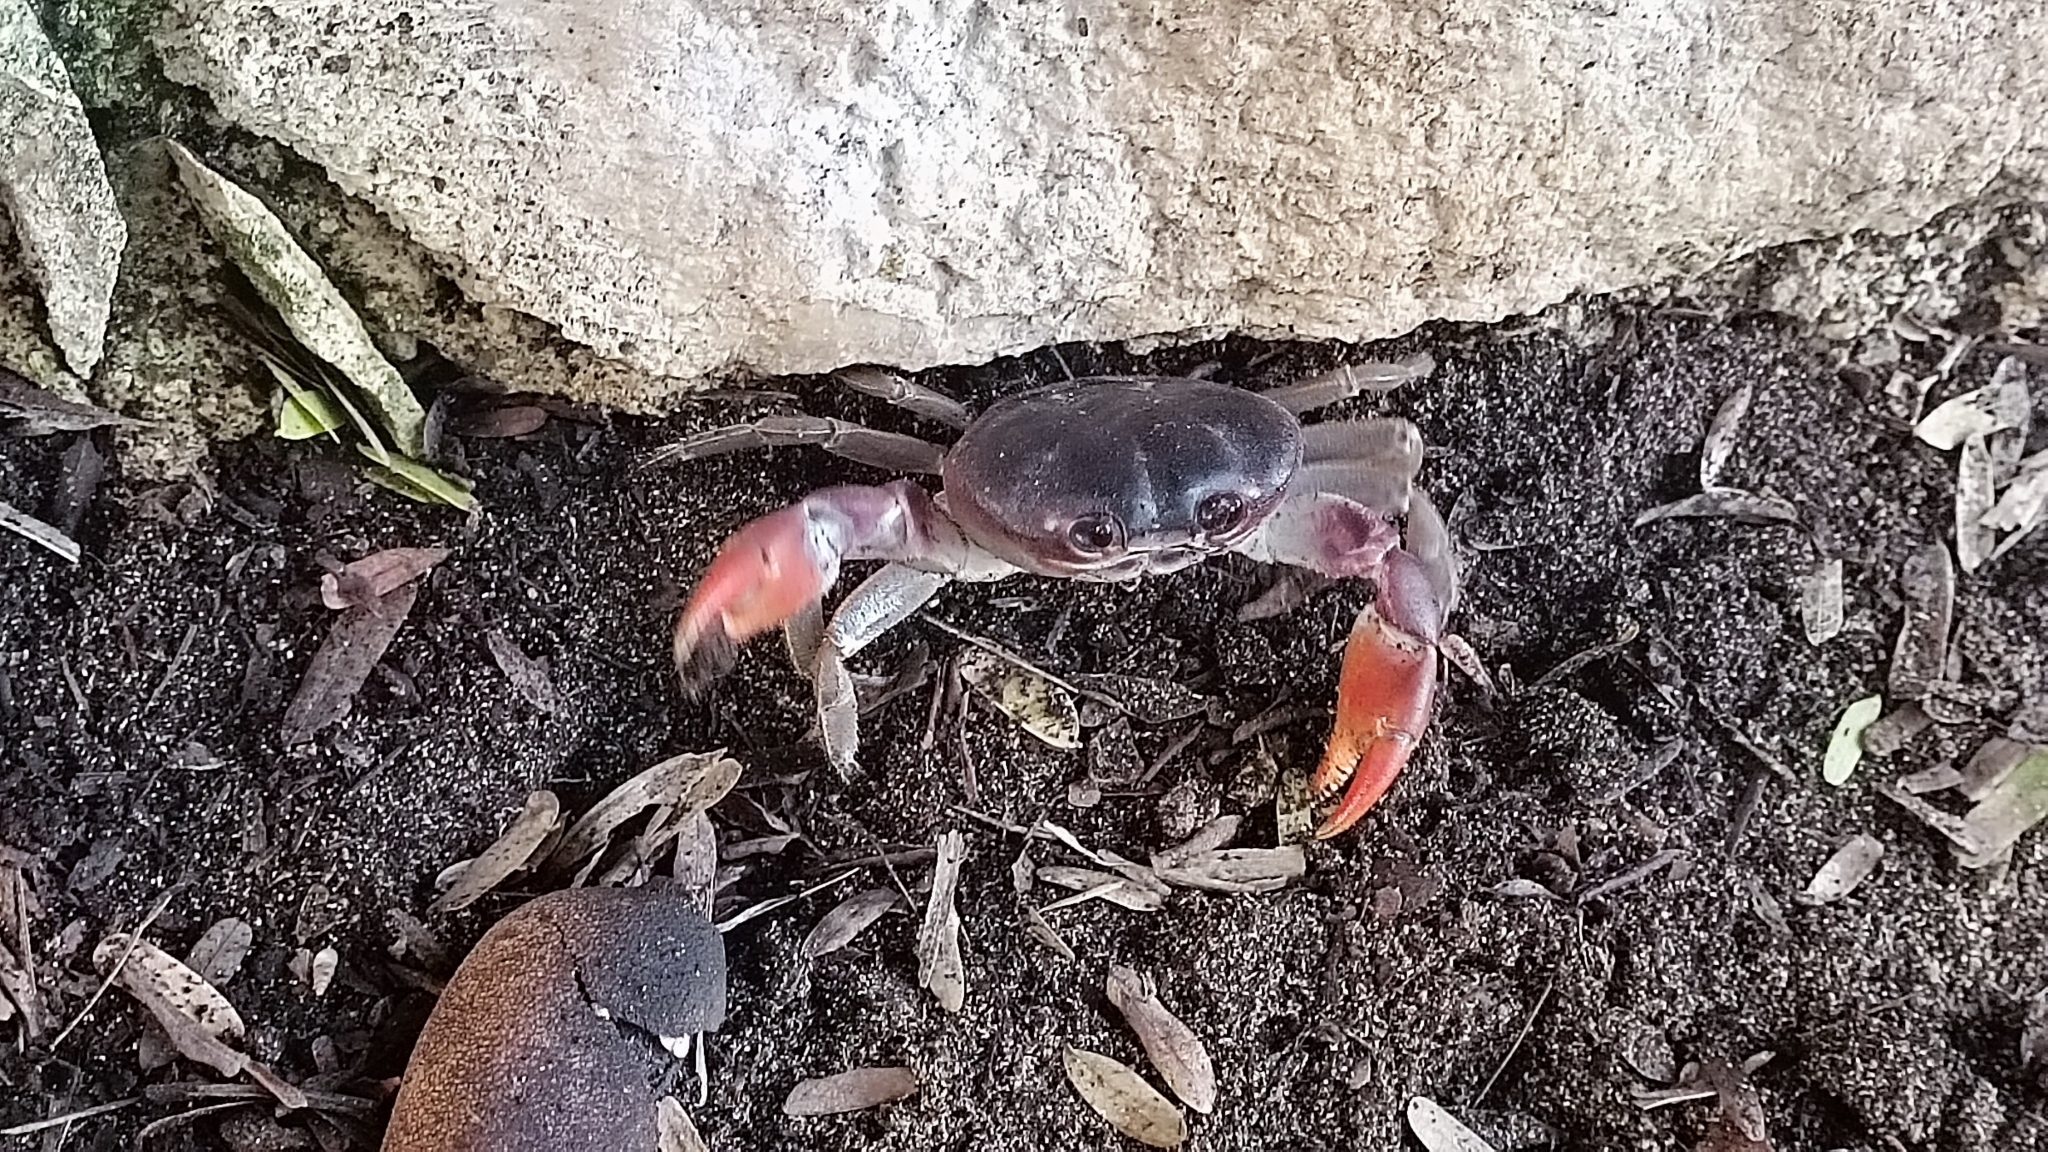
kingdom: Animalia
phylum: Arthropoda
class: Malacostraca
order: Decapoda
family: Gecarcinidae
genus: Gecarcinus
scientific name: Gecarcinus lateralis
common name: Bermuda land crab
